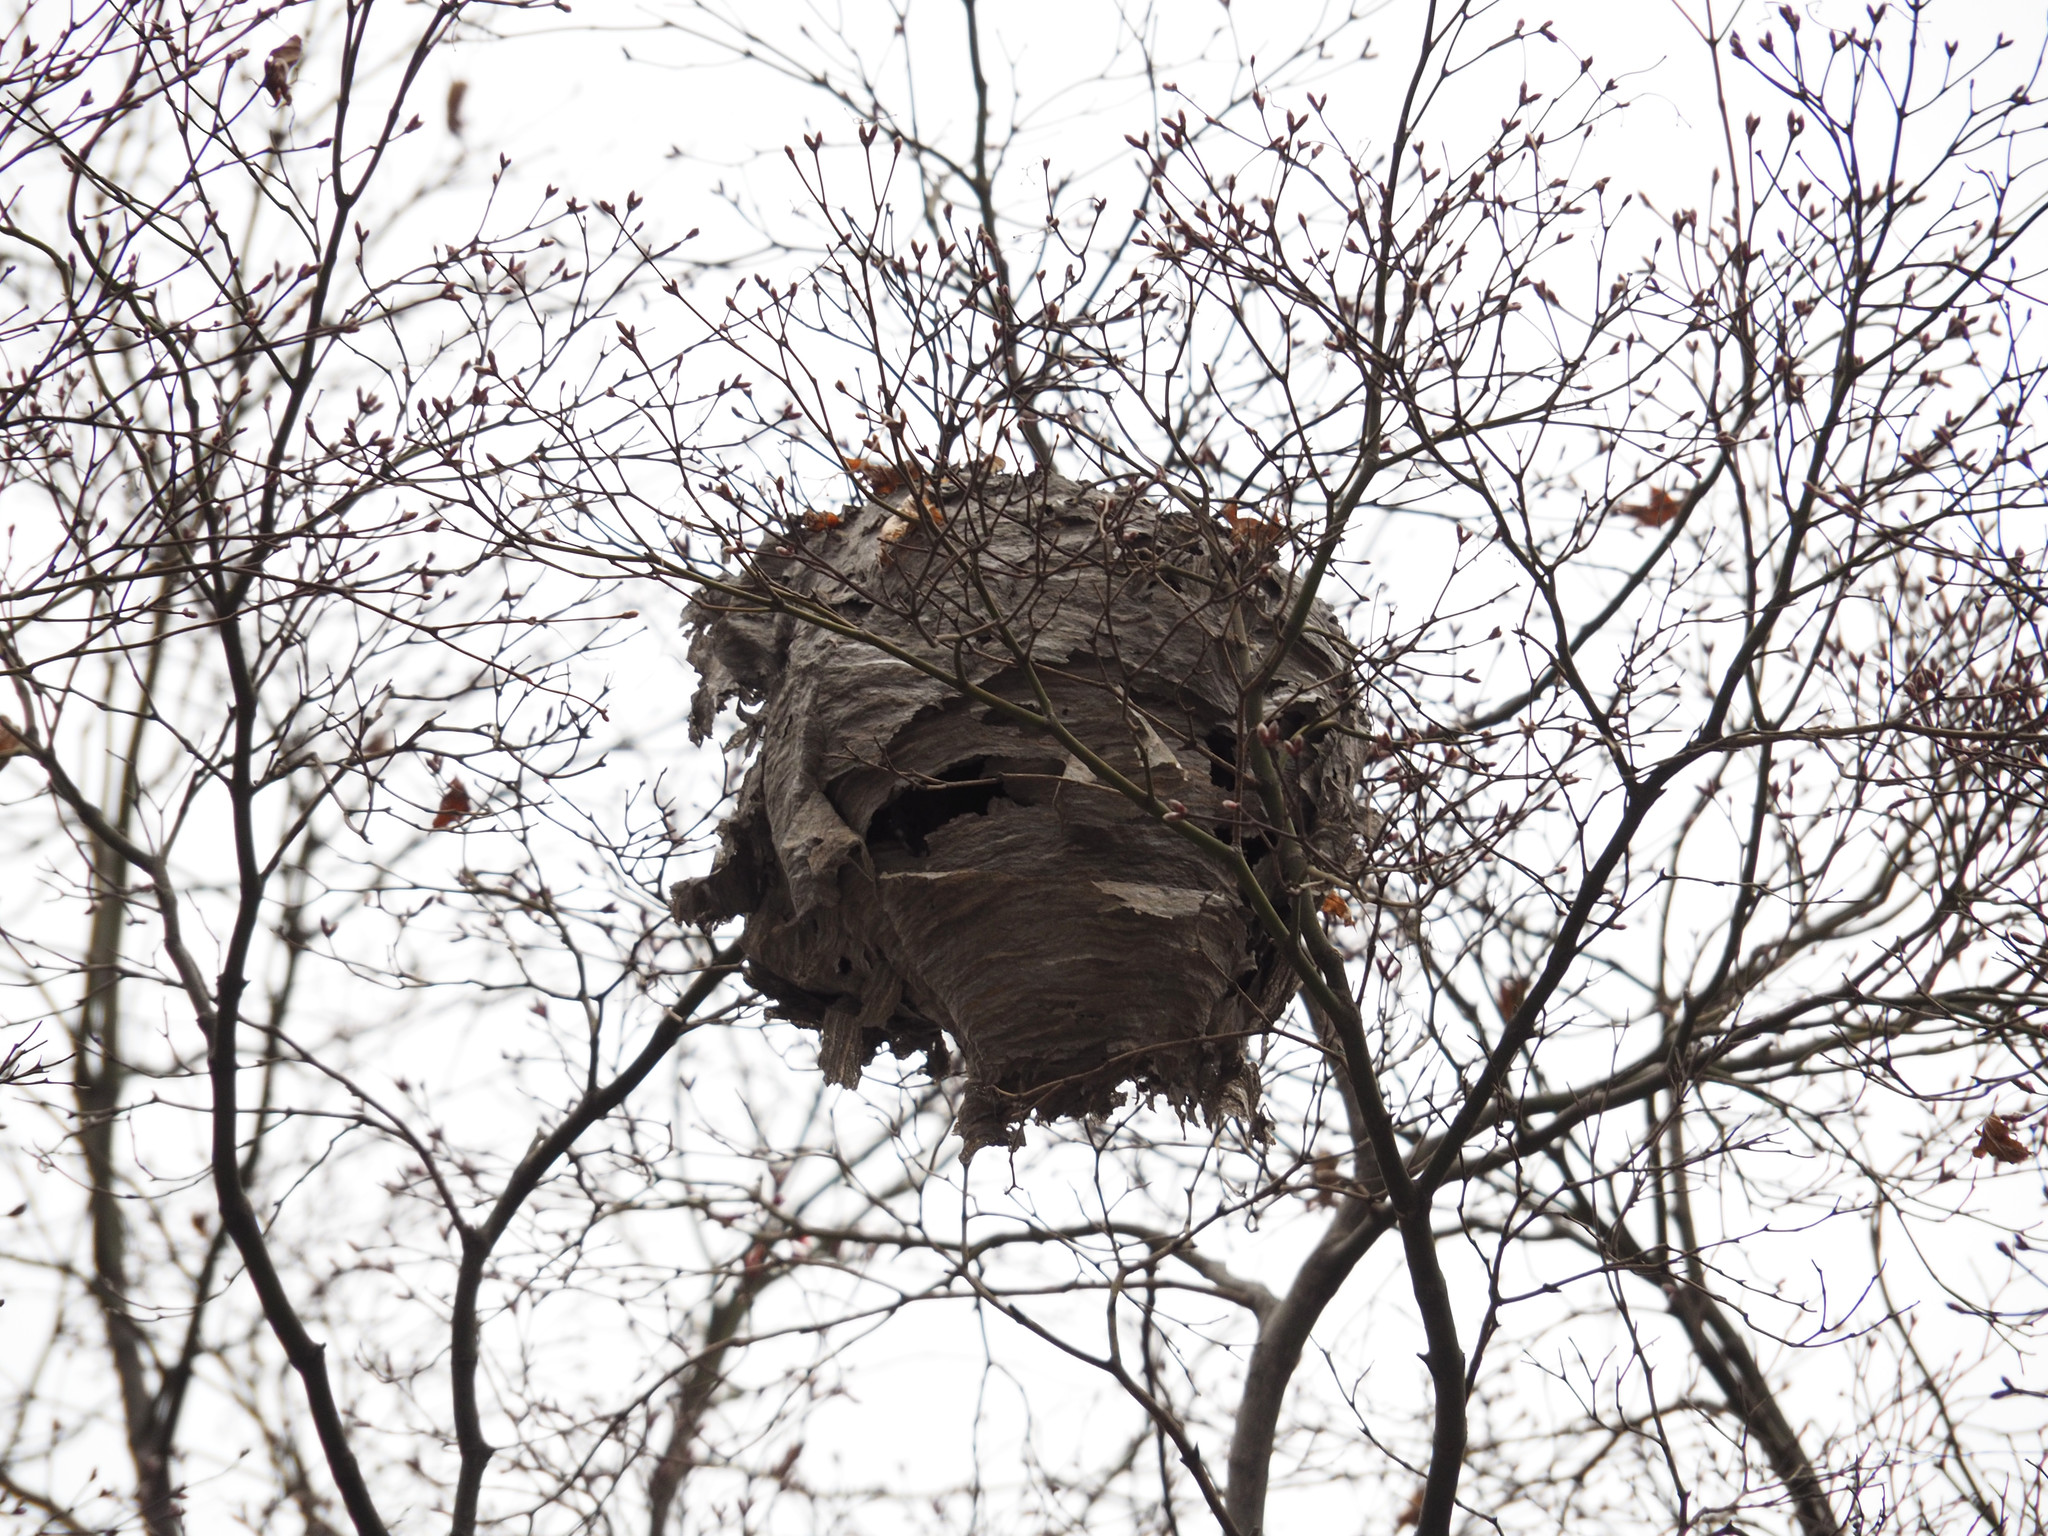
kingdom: Animalia
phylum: Arthropoda
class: Insecta
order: Hymenoptera
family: Vespidae
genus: Dolichovespula
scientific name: Dolichovespula
